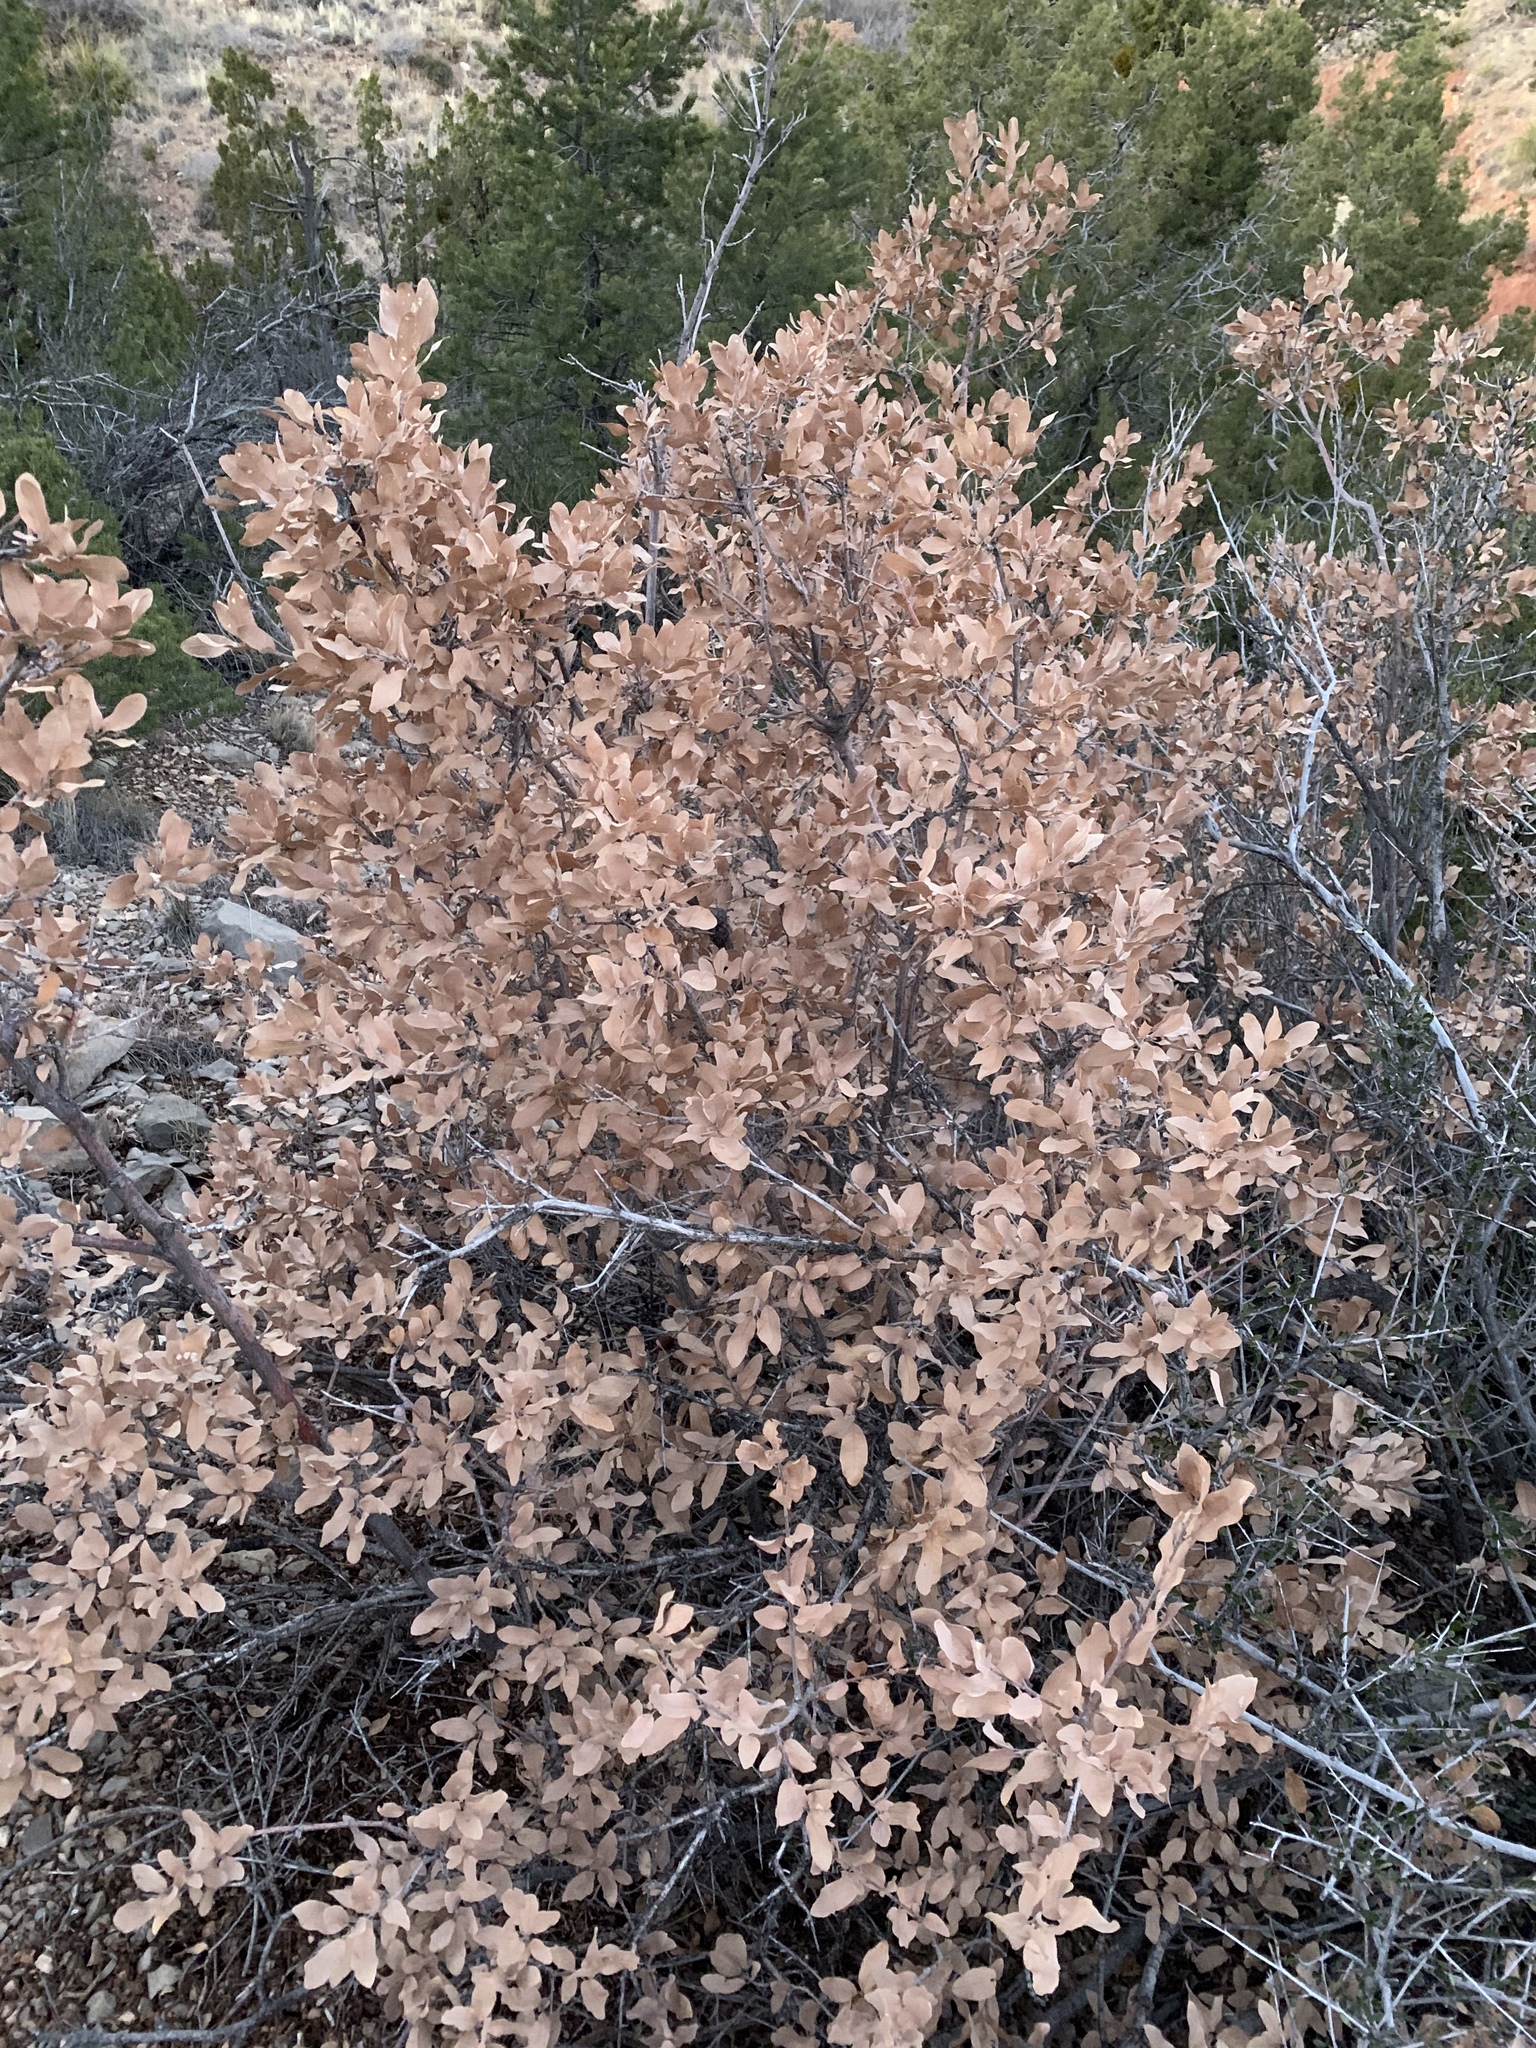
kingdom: Plantae
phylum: Tracheophyta
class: Magnoliopsida
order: Fagales
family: Fagaceae
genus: Quercus
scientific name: Quercus undulata
